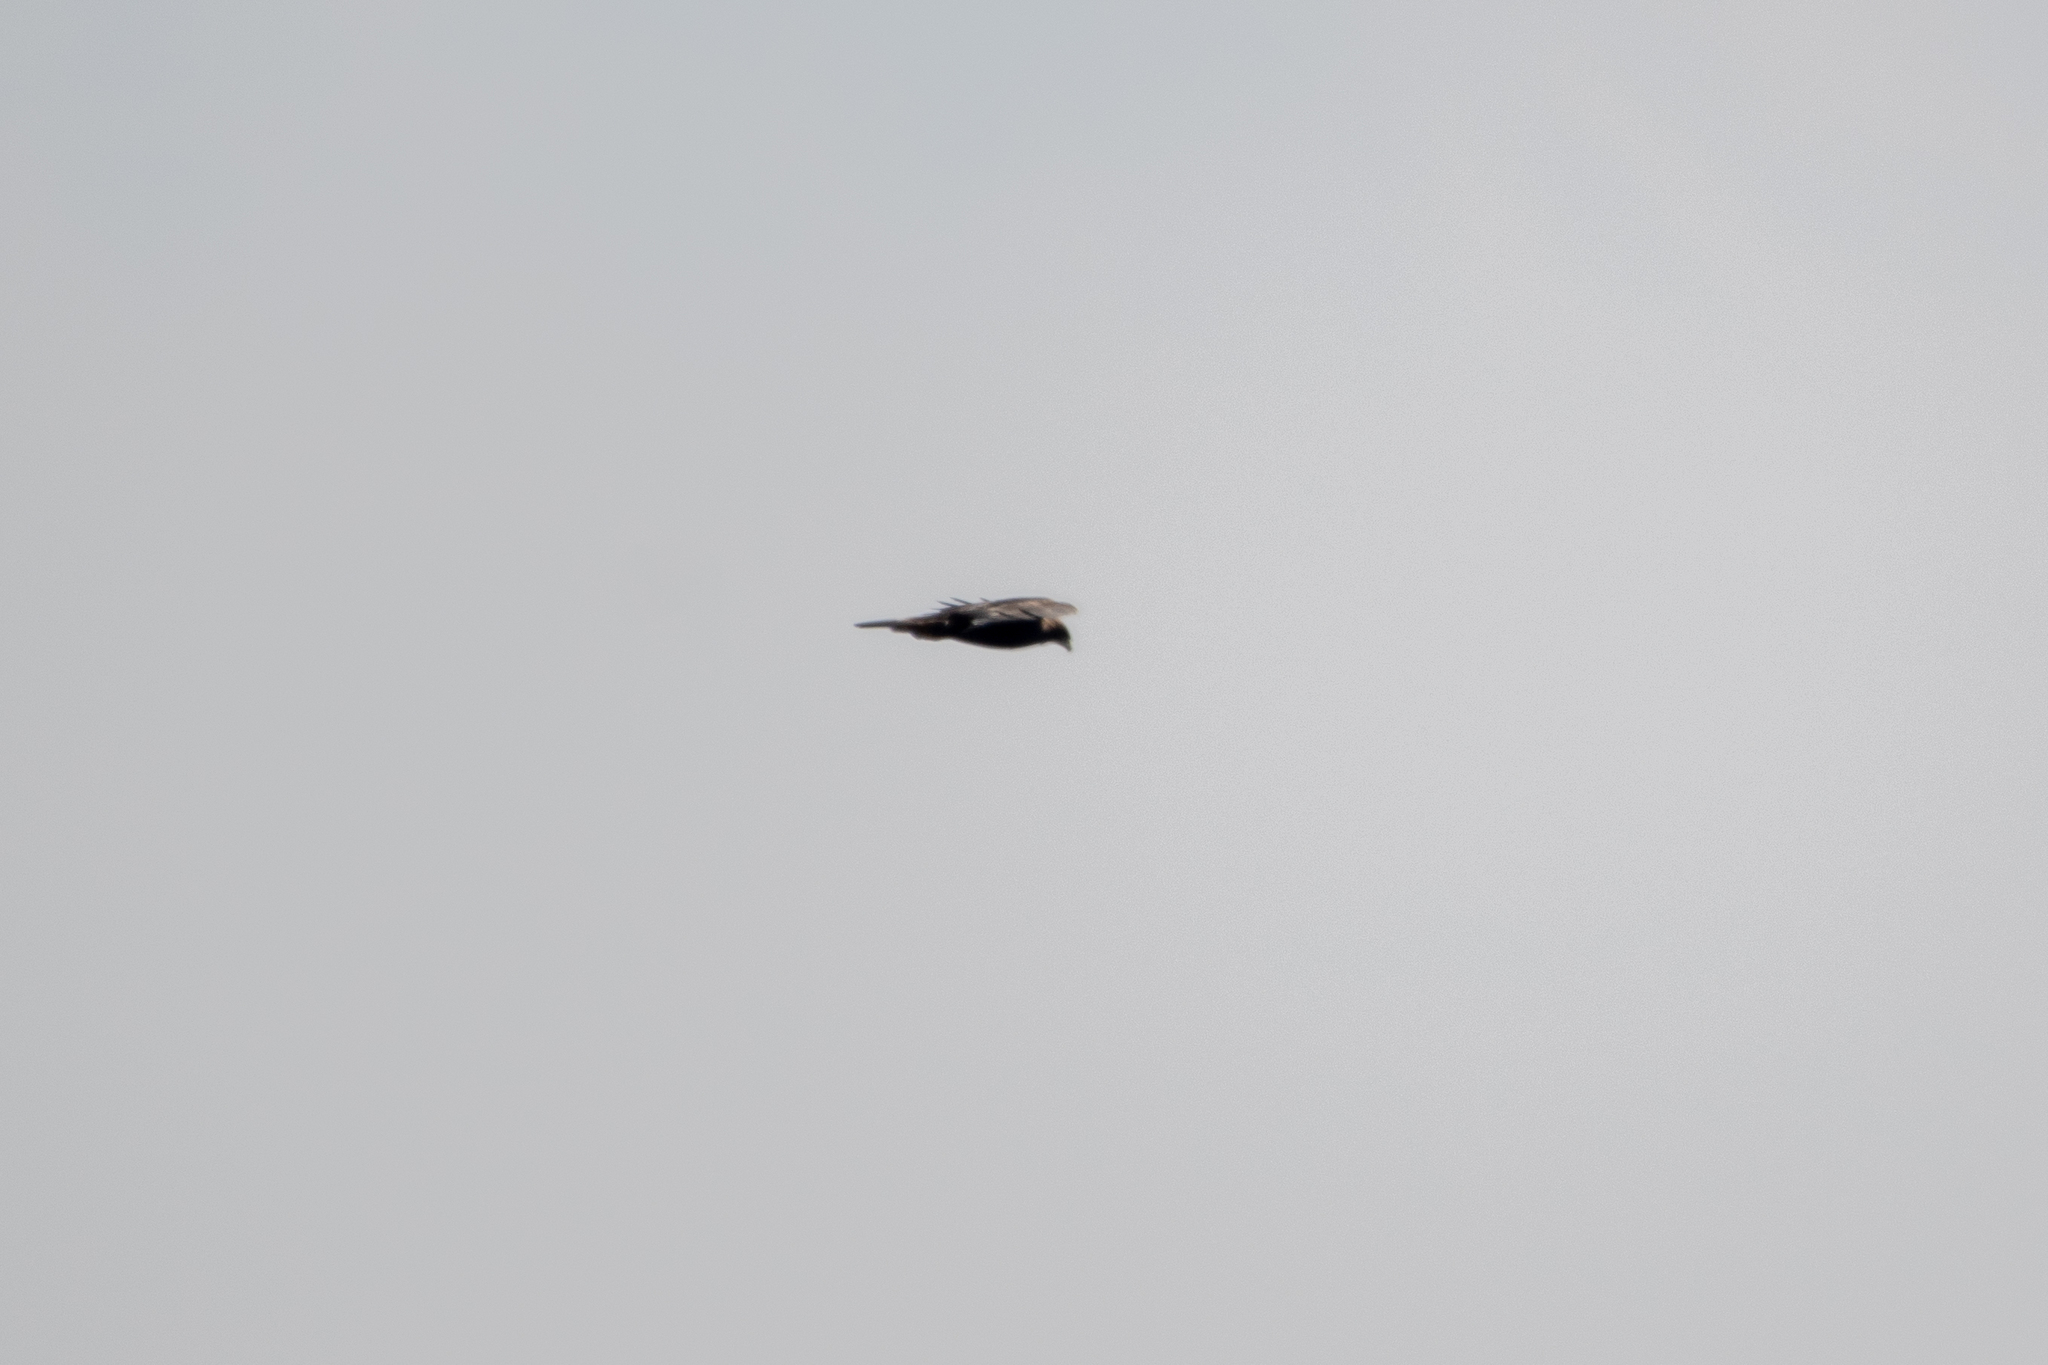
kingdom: Animalia
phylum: Chordata
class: Aves
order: Accipitriformes
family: Accipitridae
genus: Aquila
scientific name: Aquila chrysaetos
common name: Golden eagle
